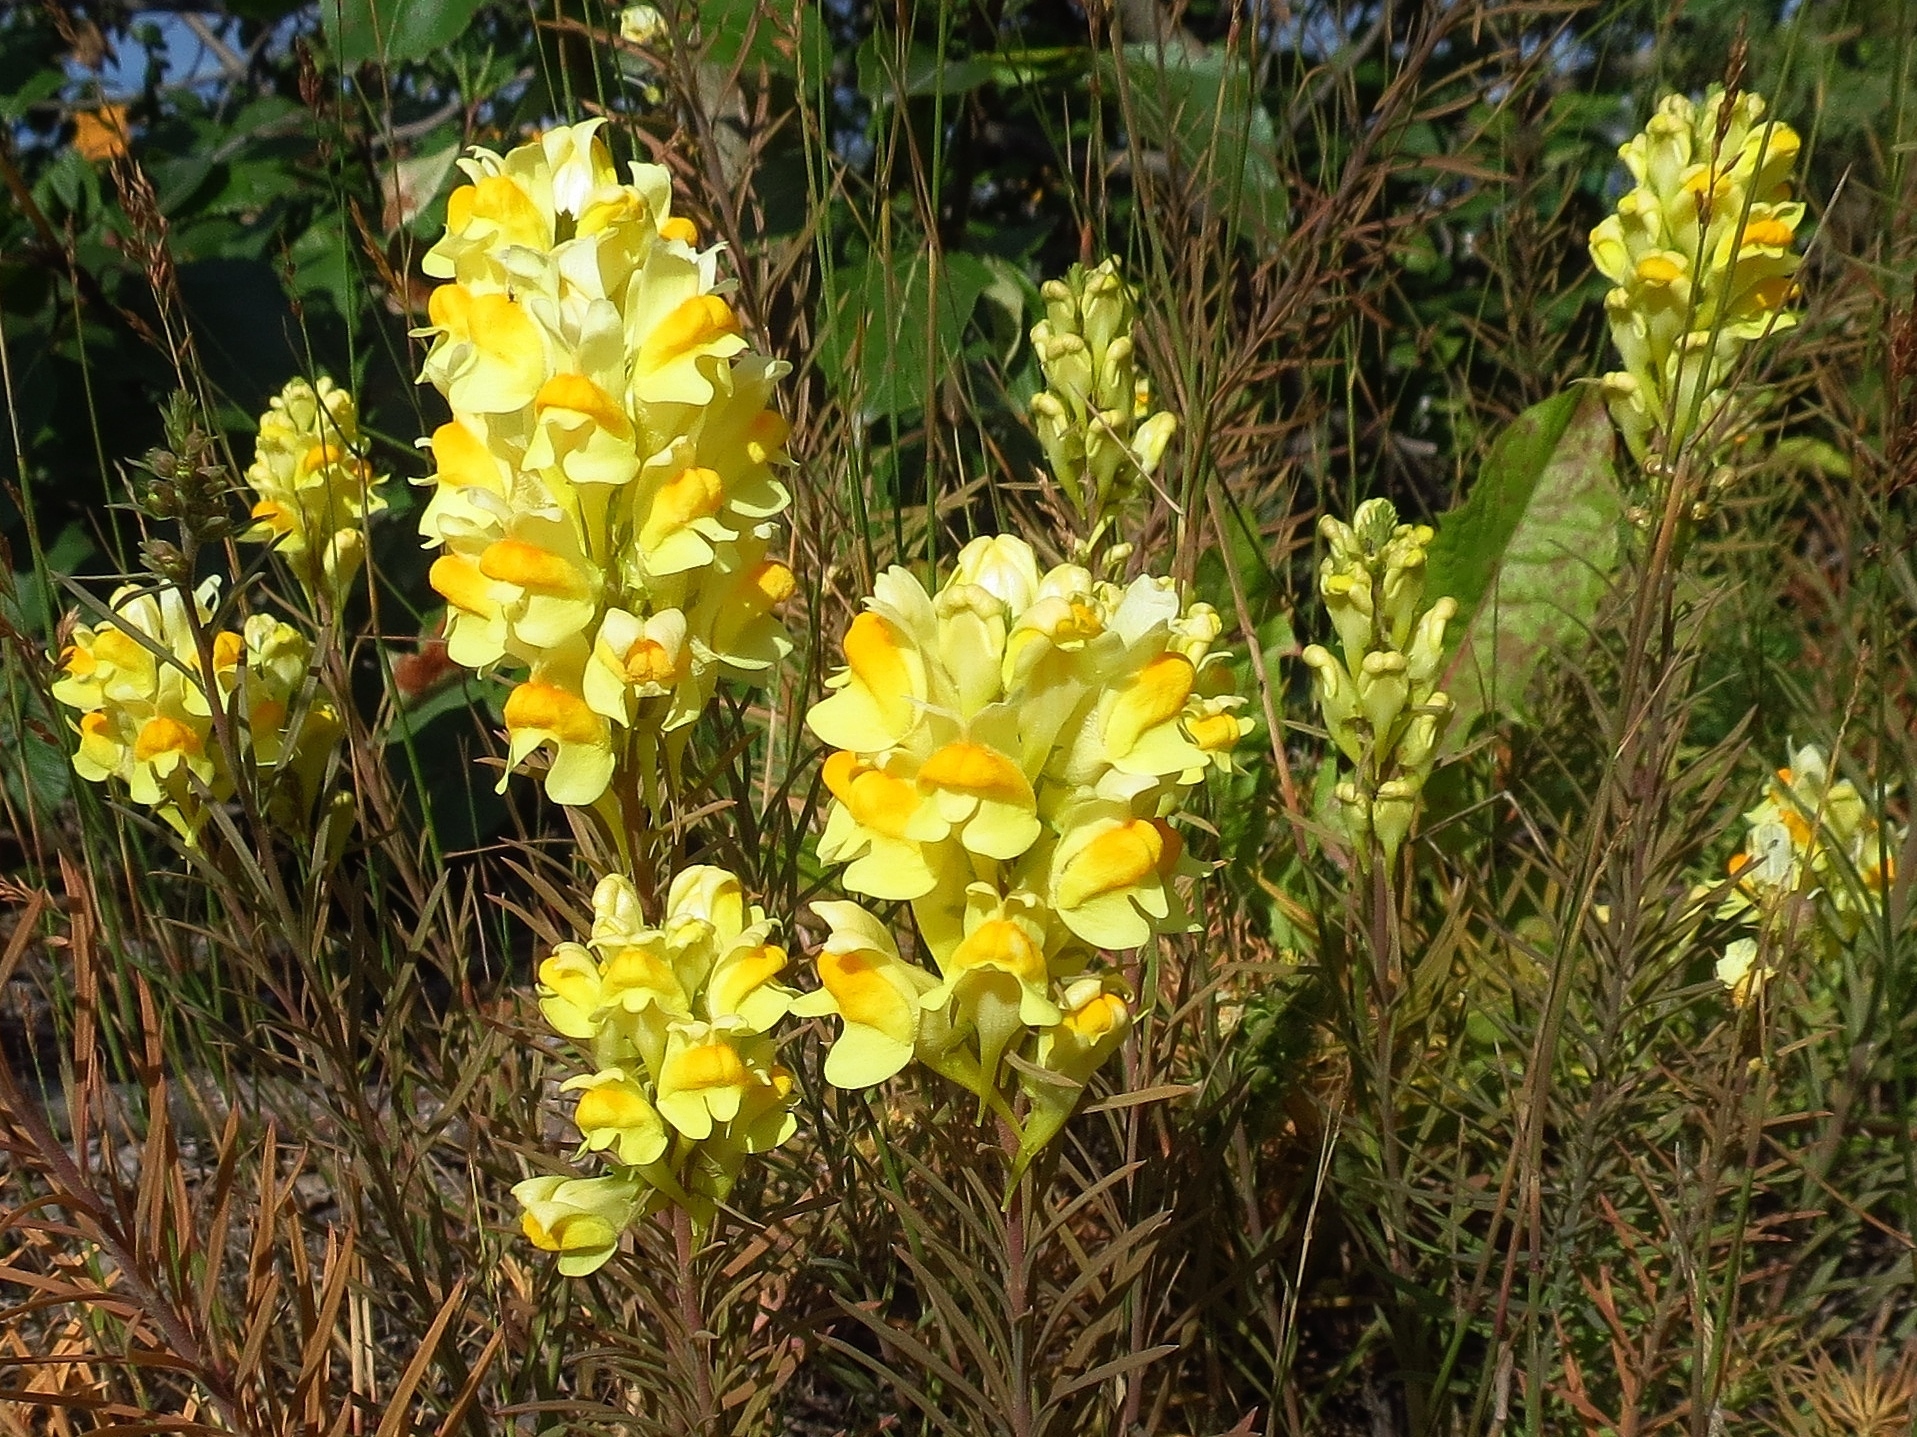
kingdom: Plantae
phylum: Tracheophyta
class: Magnoliopsida
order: Lamiales
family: Plantaginaceae
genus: Linaria
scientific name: Linaria vulgaris
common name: Butter and eggs
